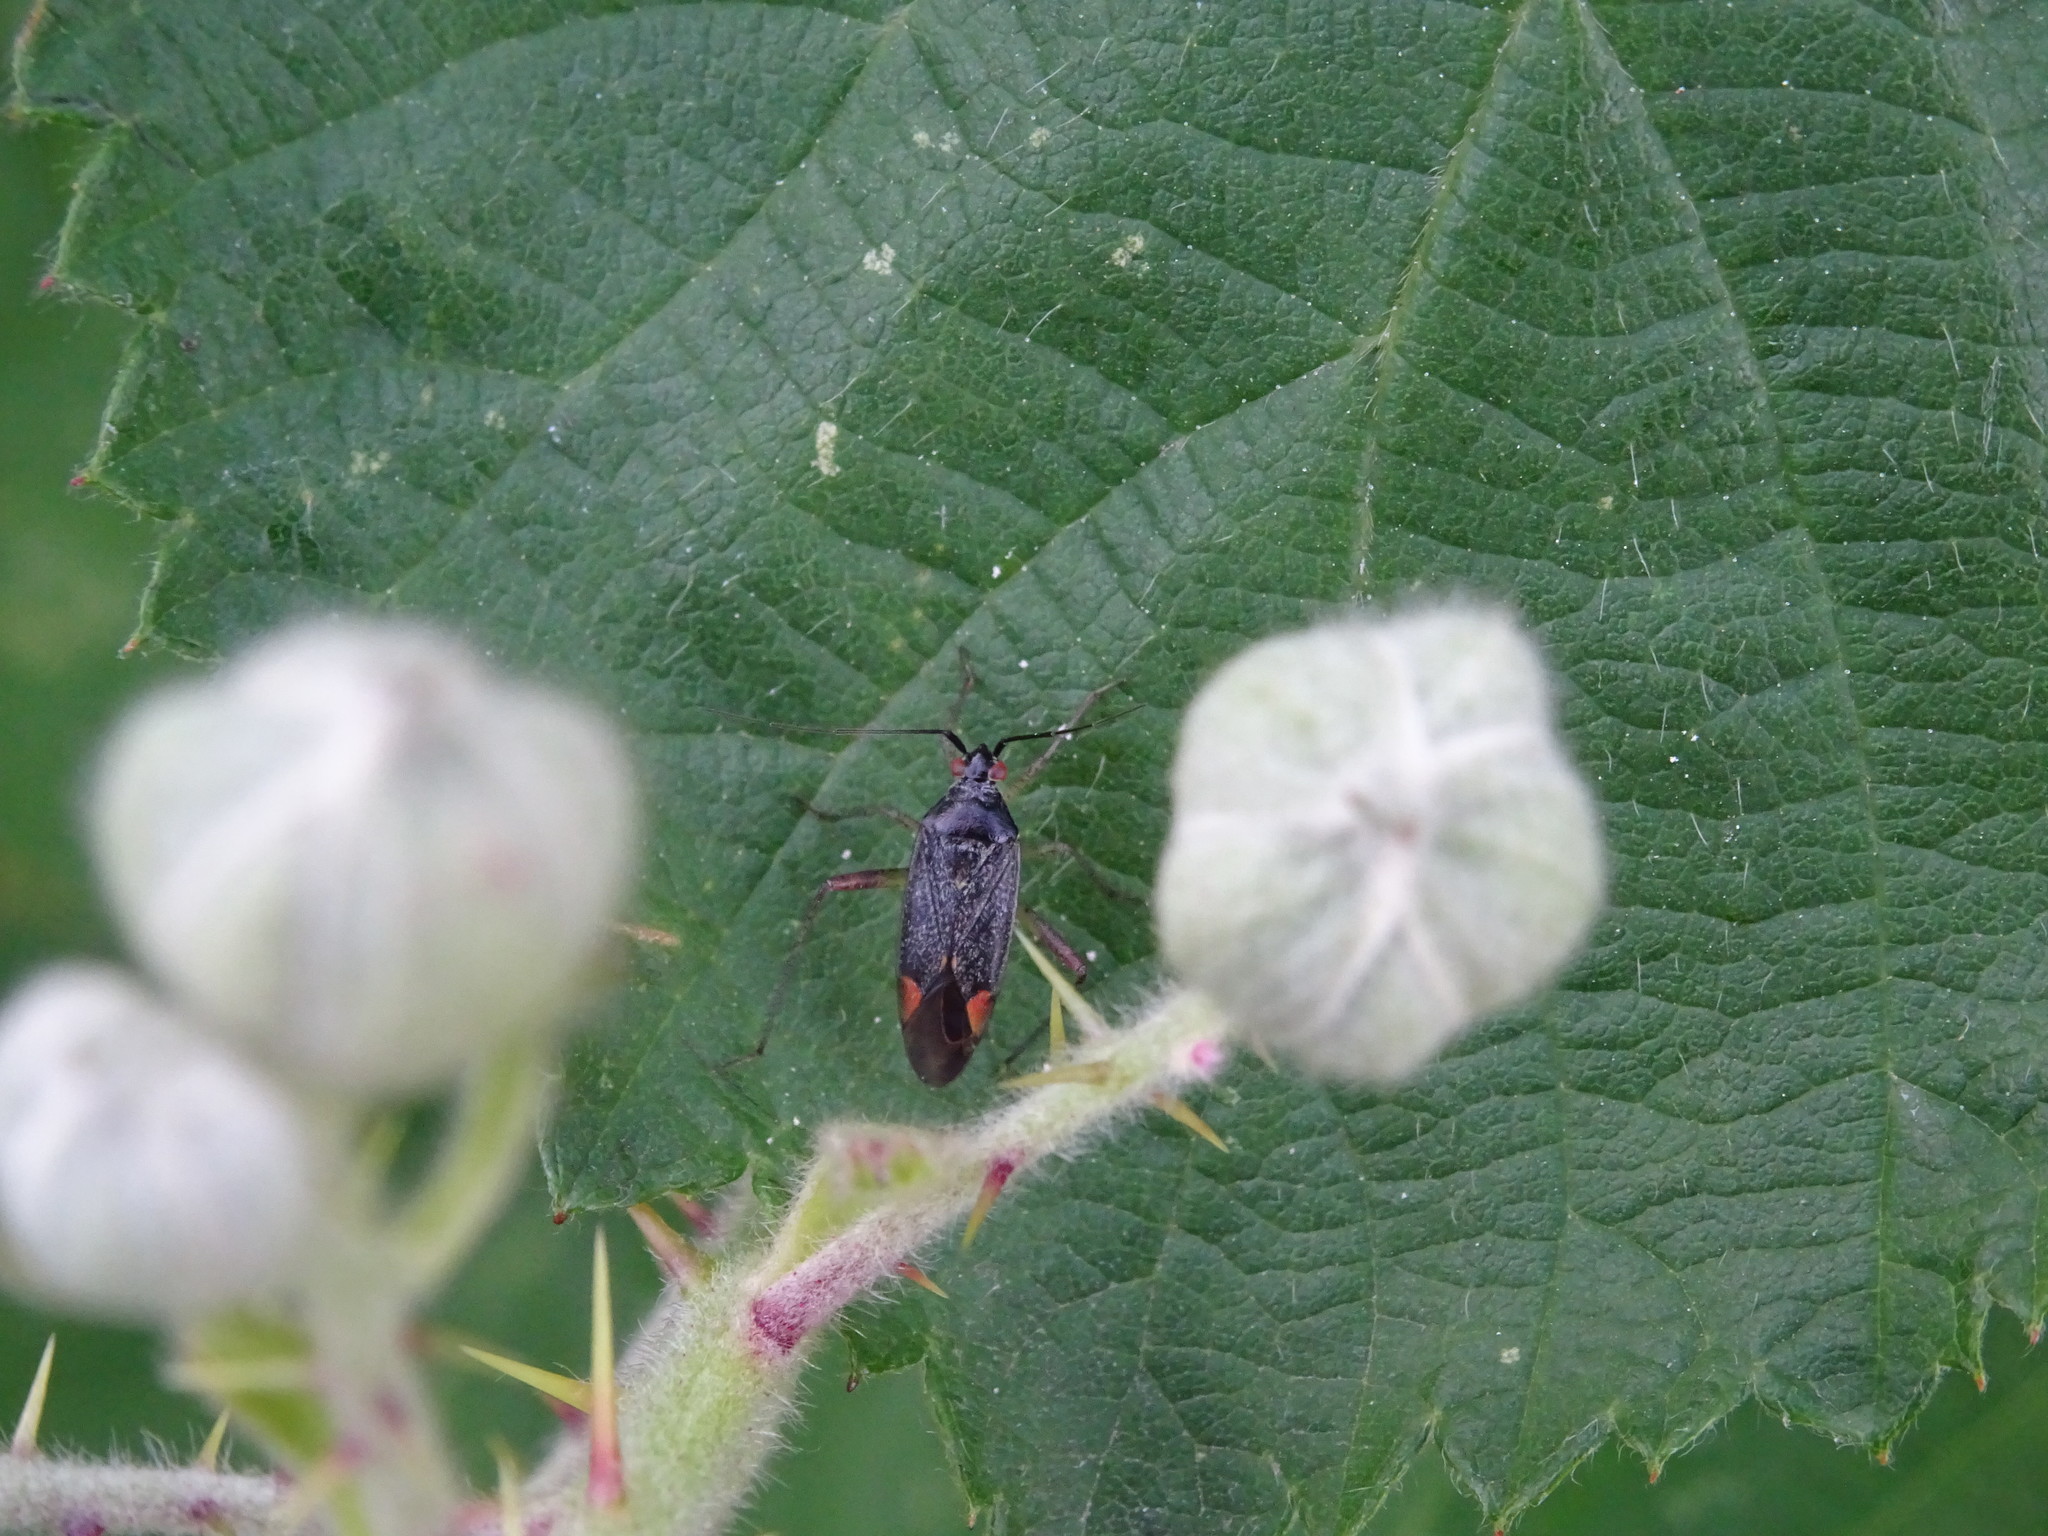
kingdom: Animalia
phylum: Arthropoda
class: Insecta
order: Hemiptera
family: Miridae
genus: Closterotomus
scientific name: Closterotomus trivialis
